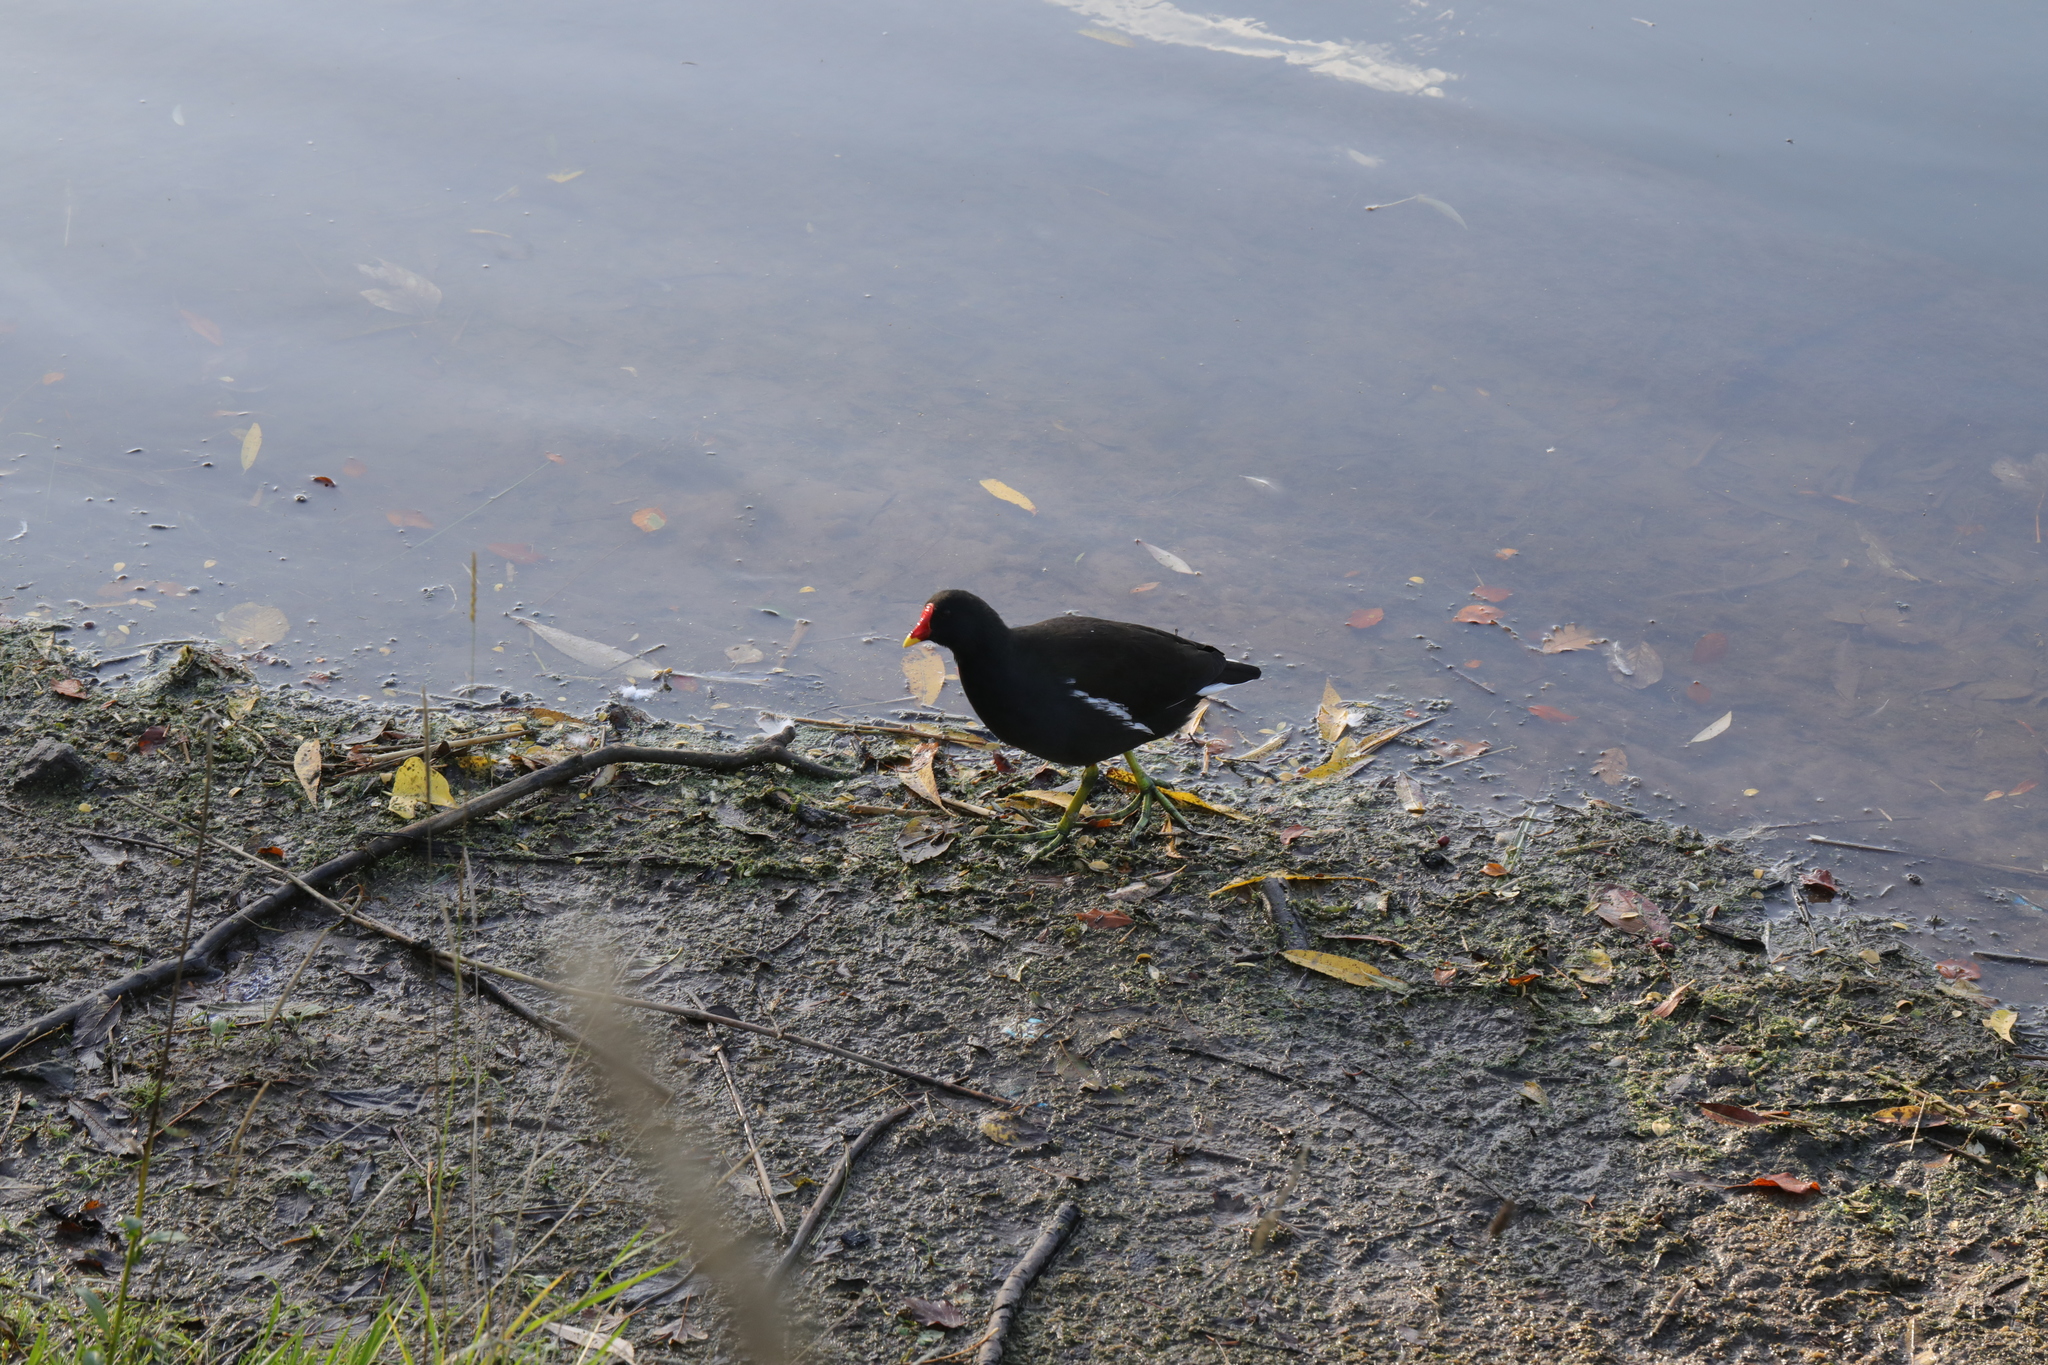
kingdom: Animalia
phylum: Chordata
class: Aves
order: Gruiformes
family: Rallidae
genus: Gallinula
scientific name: Gallinula chloropus
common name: Common moorhen
